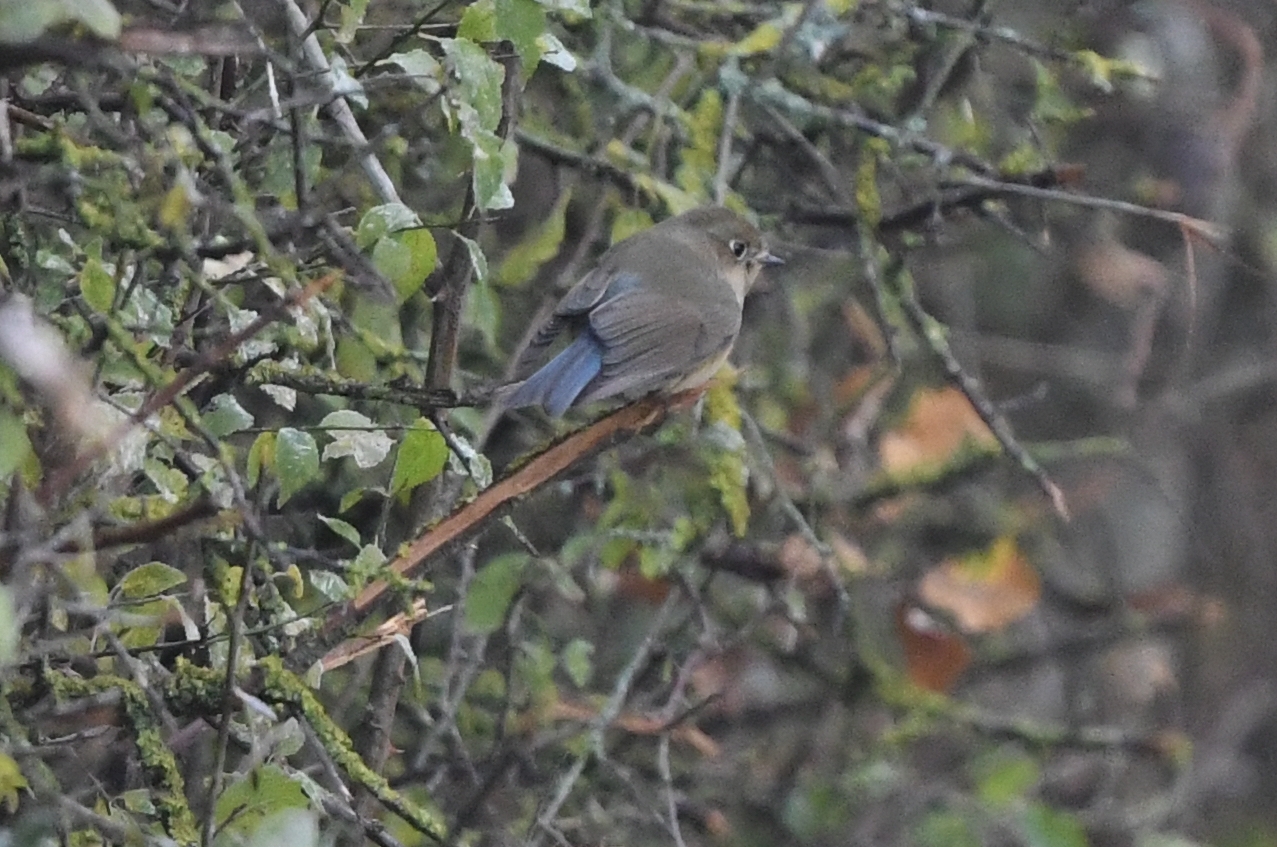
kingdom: Animalia
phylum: Chordata
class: Aves
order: Passeriformes
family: Muscicapidae
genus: Tarsiger
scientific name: Tarsiger cyanurus
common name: Red-flanked bluetail
